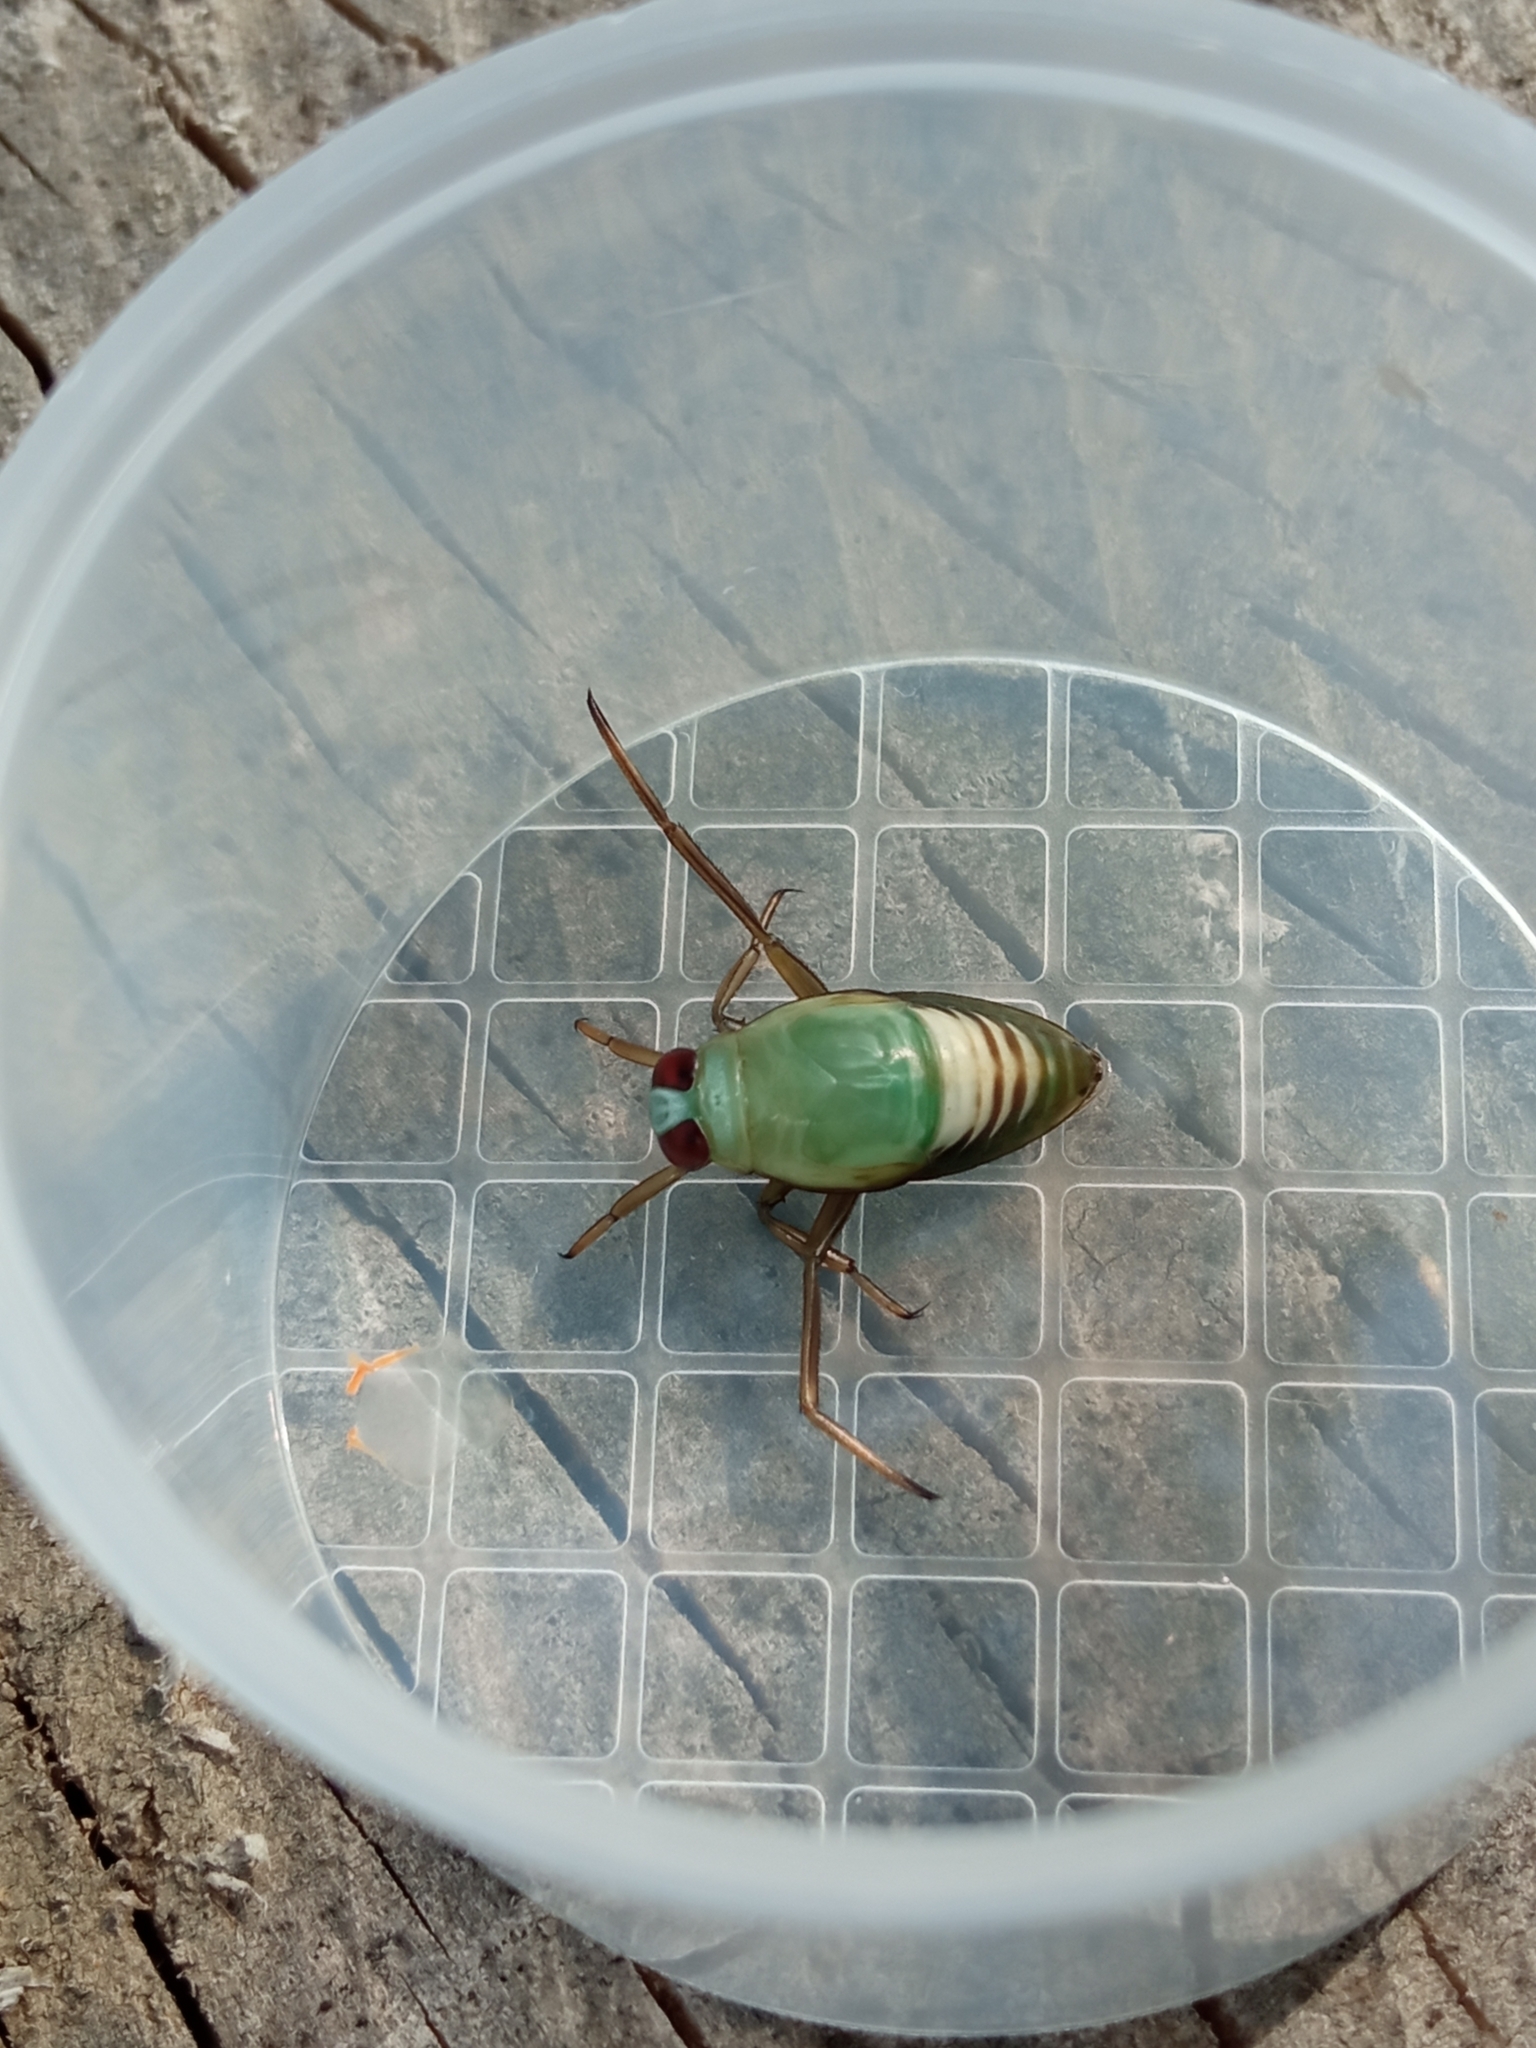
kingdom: Animalia
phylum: Arthropoda
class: Insecta
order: Hemiptera
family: Notonectidae
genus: Notonecta
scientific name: Notonecta
